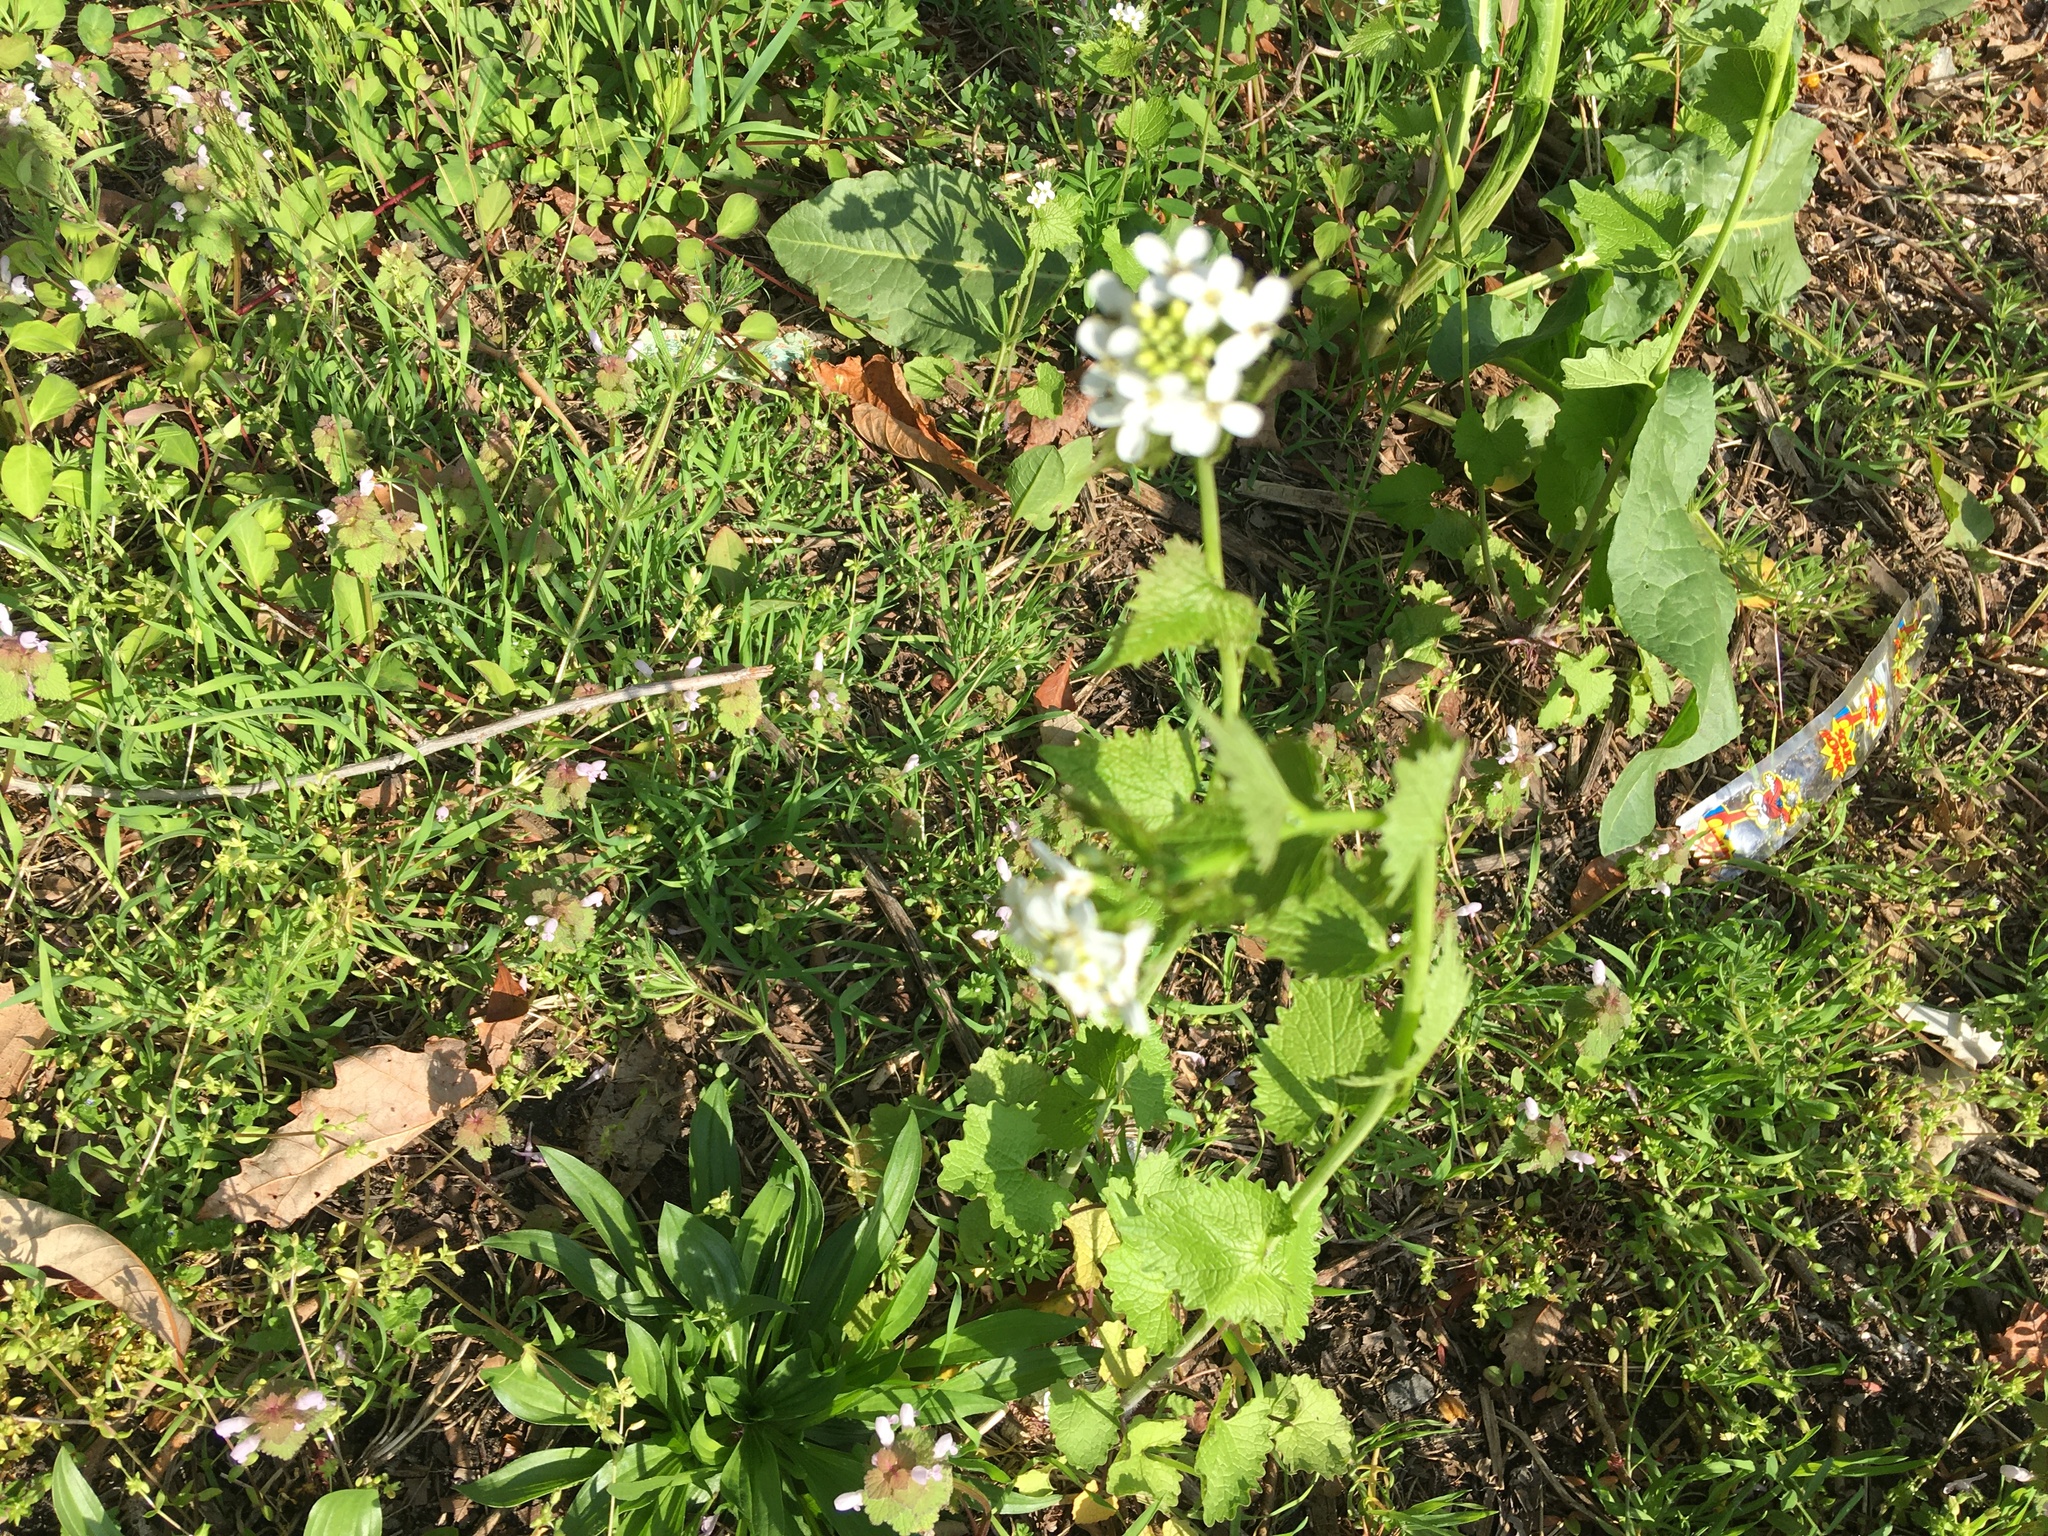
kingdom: Plantae
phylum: Tracheophyta
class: Magnoliopsida
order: Brassicales
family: Brassicaceae
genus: Alliaria
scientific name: Alliaria petiolata
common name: Garlic mustard
